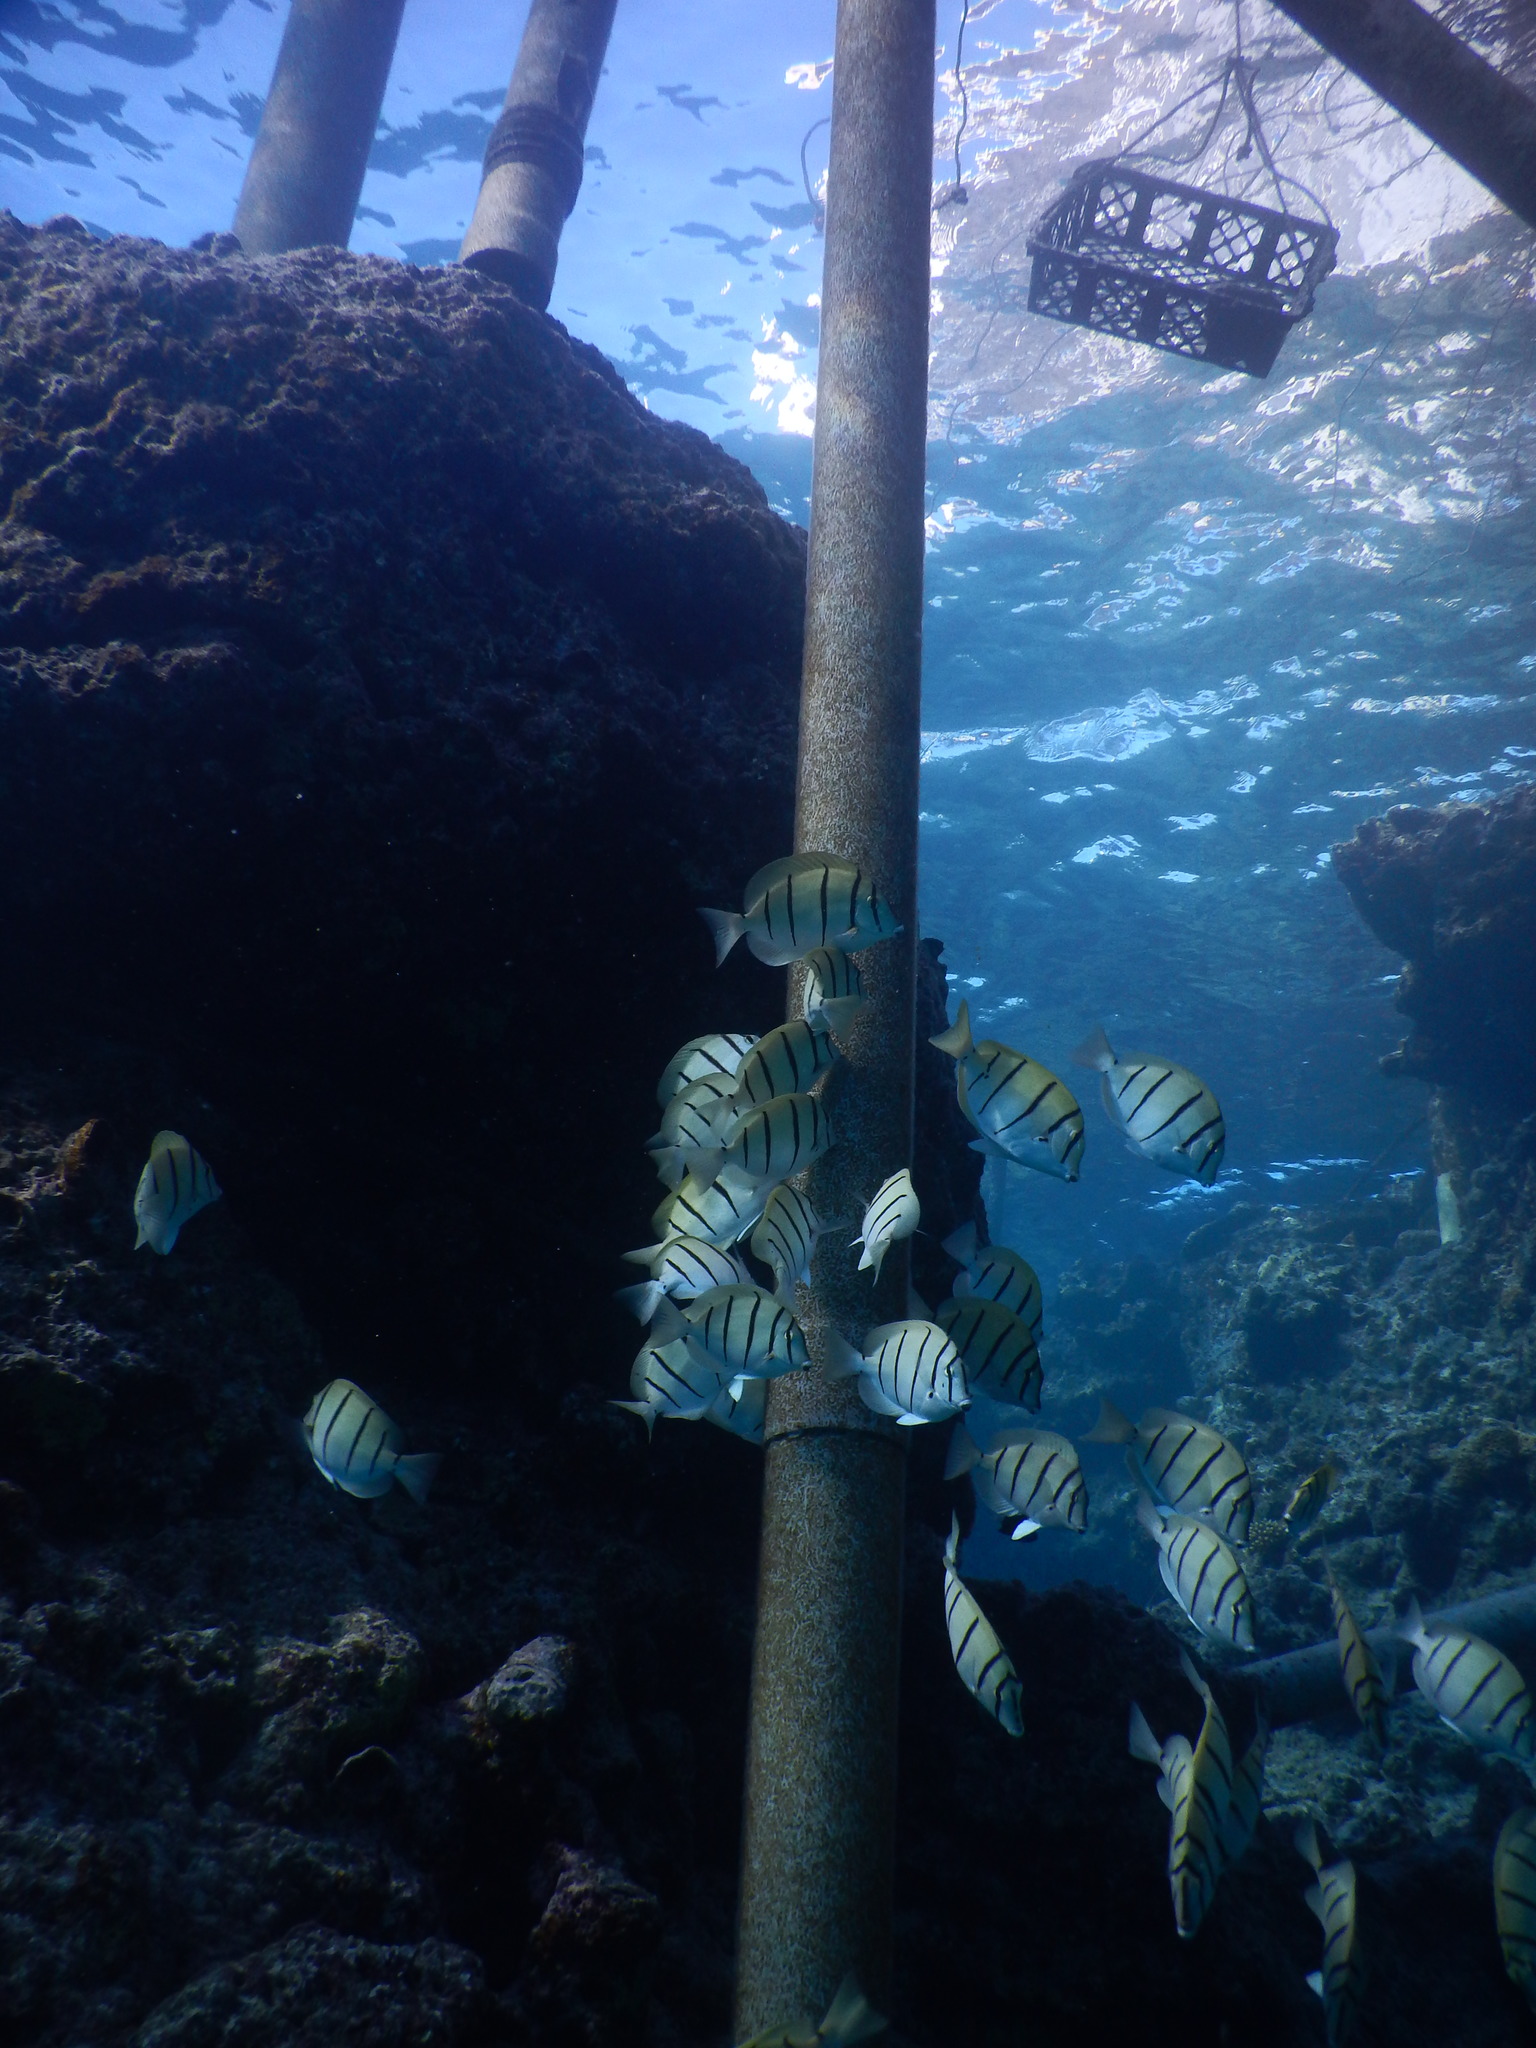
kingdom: Animalia
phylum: Chordata
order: Perciformes
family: Acanthuridae
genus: Acanthurus
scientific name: Acanthurus triostegus
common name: Convict surgeonfish
